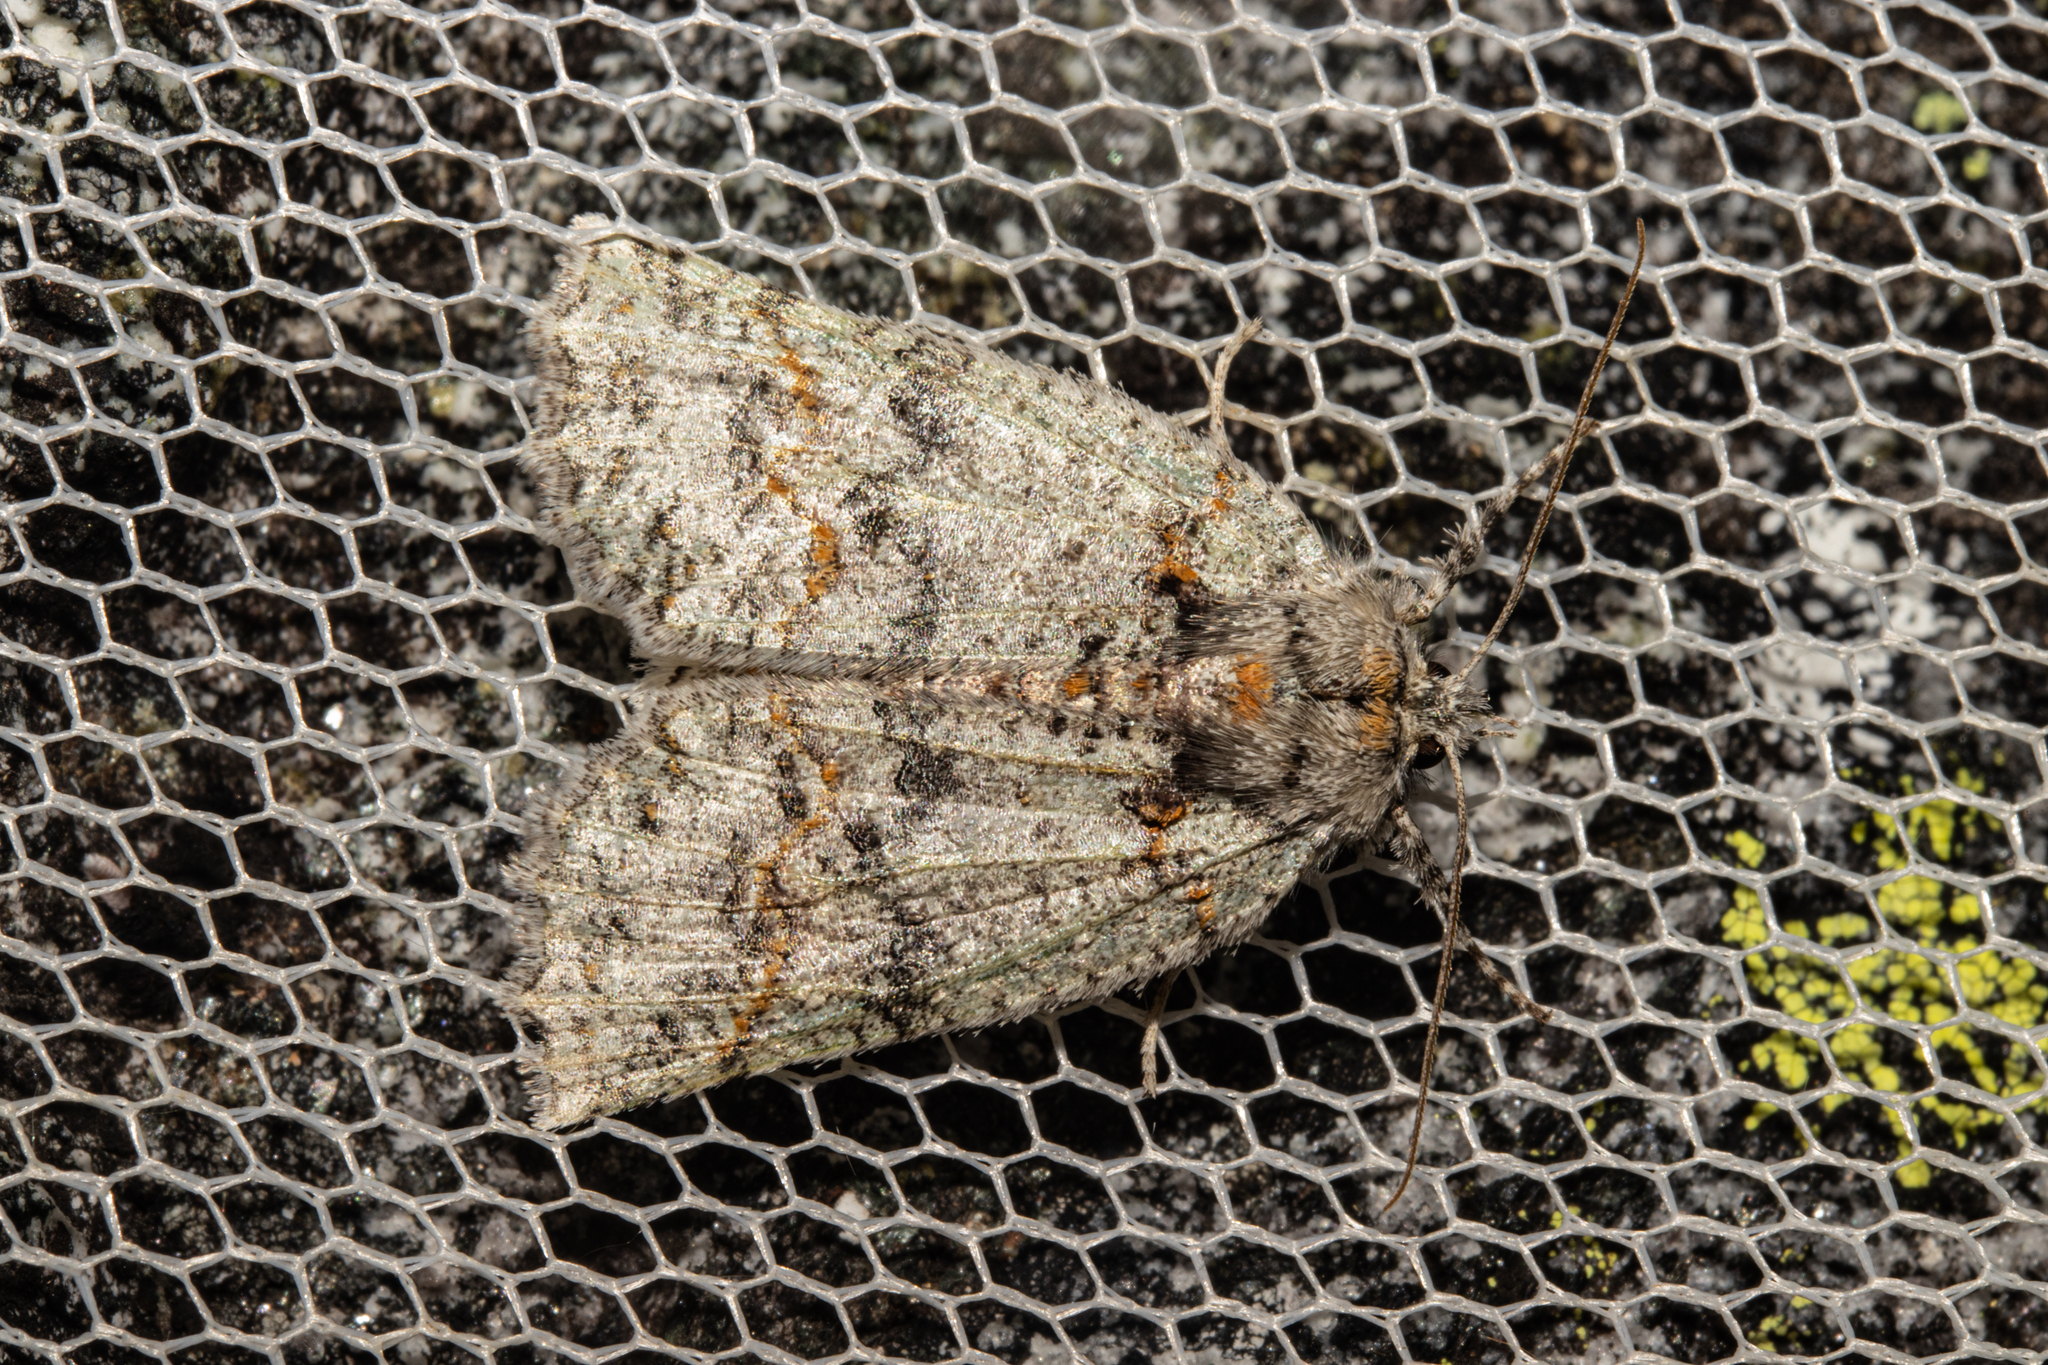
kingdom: Animalia
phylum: Arthropoda
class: Insecta
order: Lepidoptera
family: Geometridae
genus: Declana
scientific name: Declana floccosa
